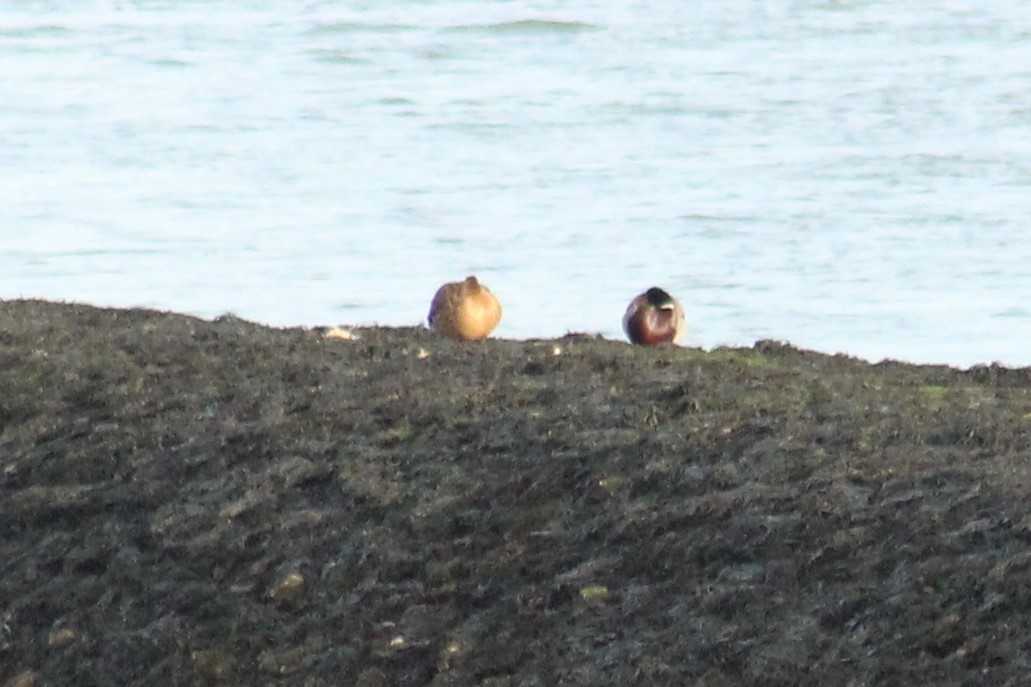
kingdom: Animalia
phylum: Chordata
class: Aves
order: Anseriformes
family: Anatidae
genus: Anas
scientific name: Anas platyrhynchos
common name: Mallard
